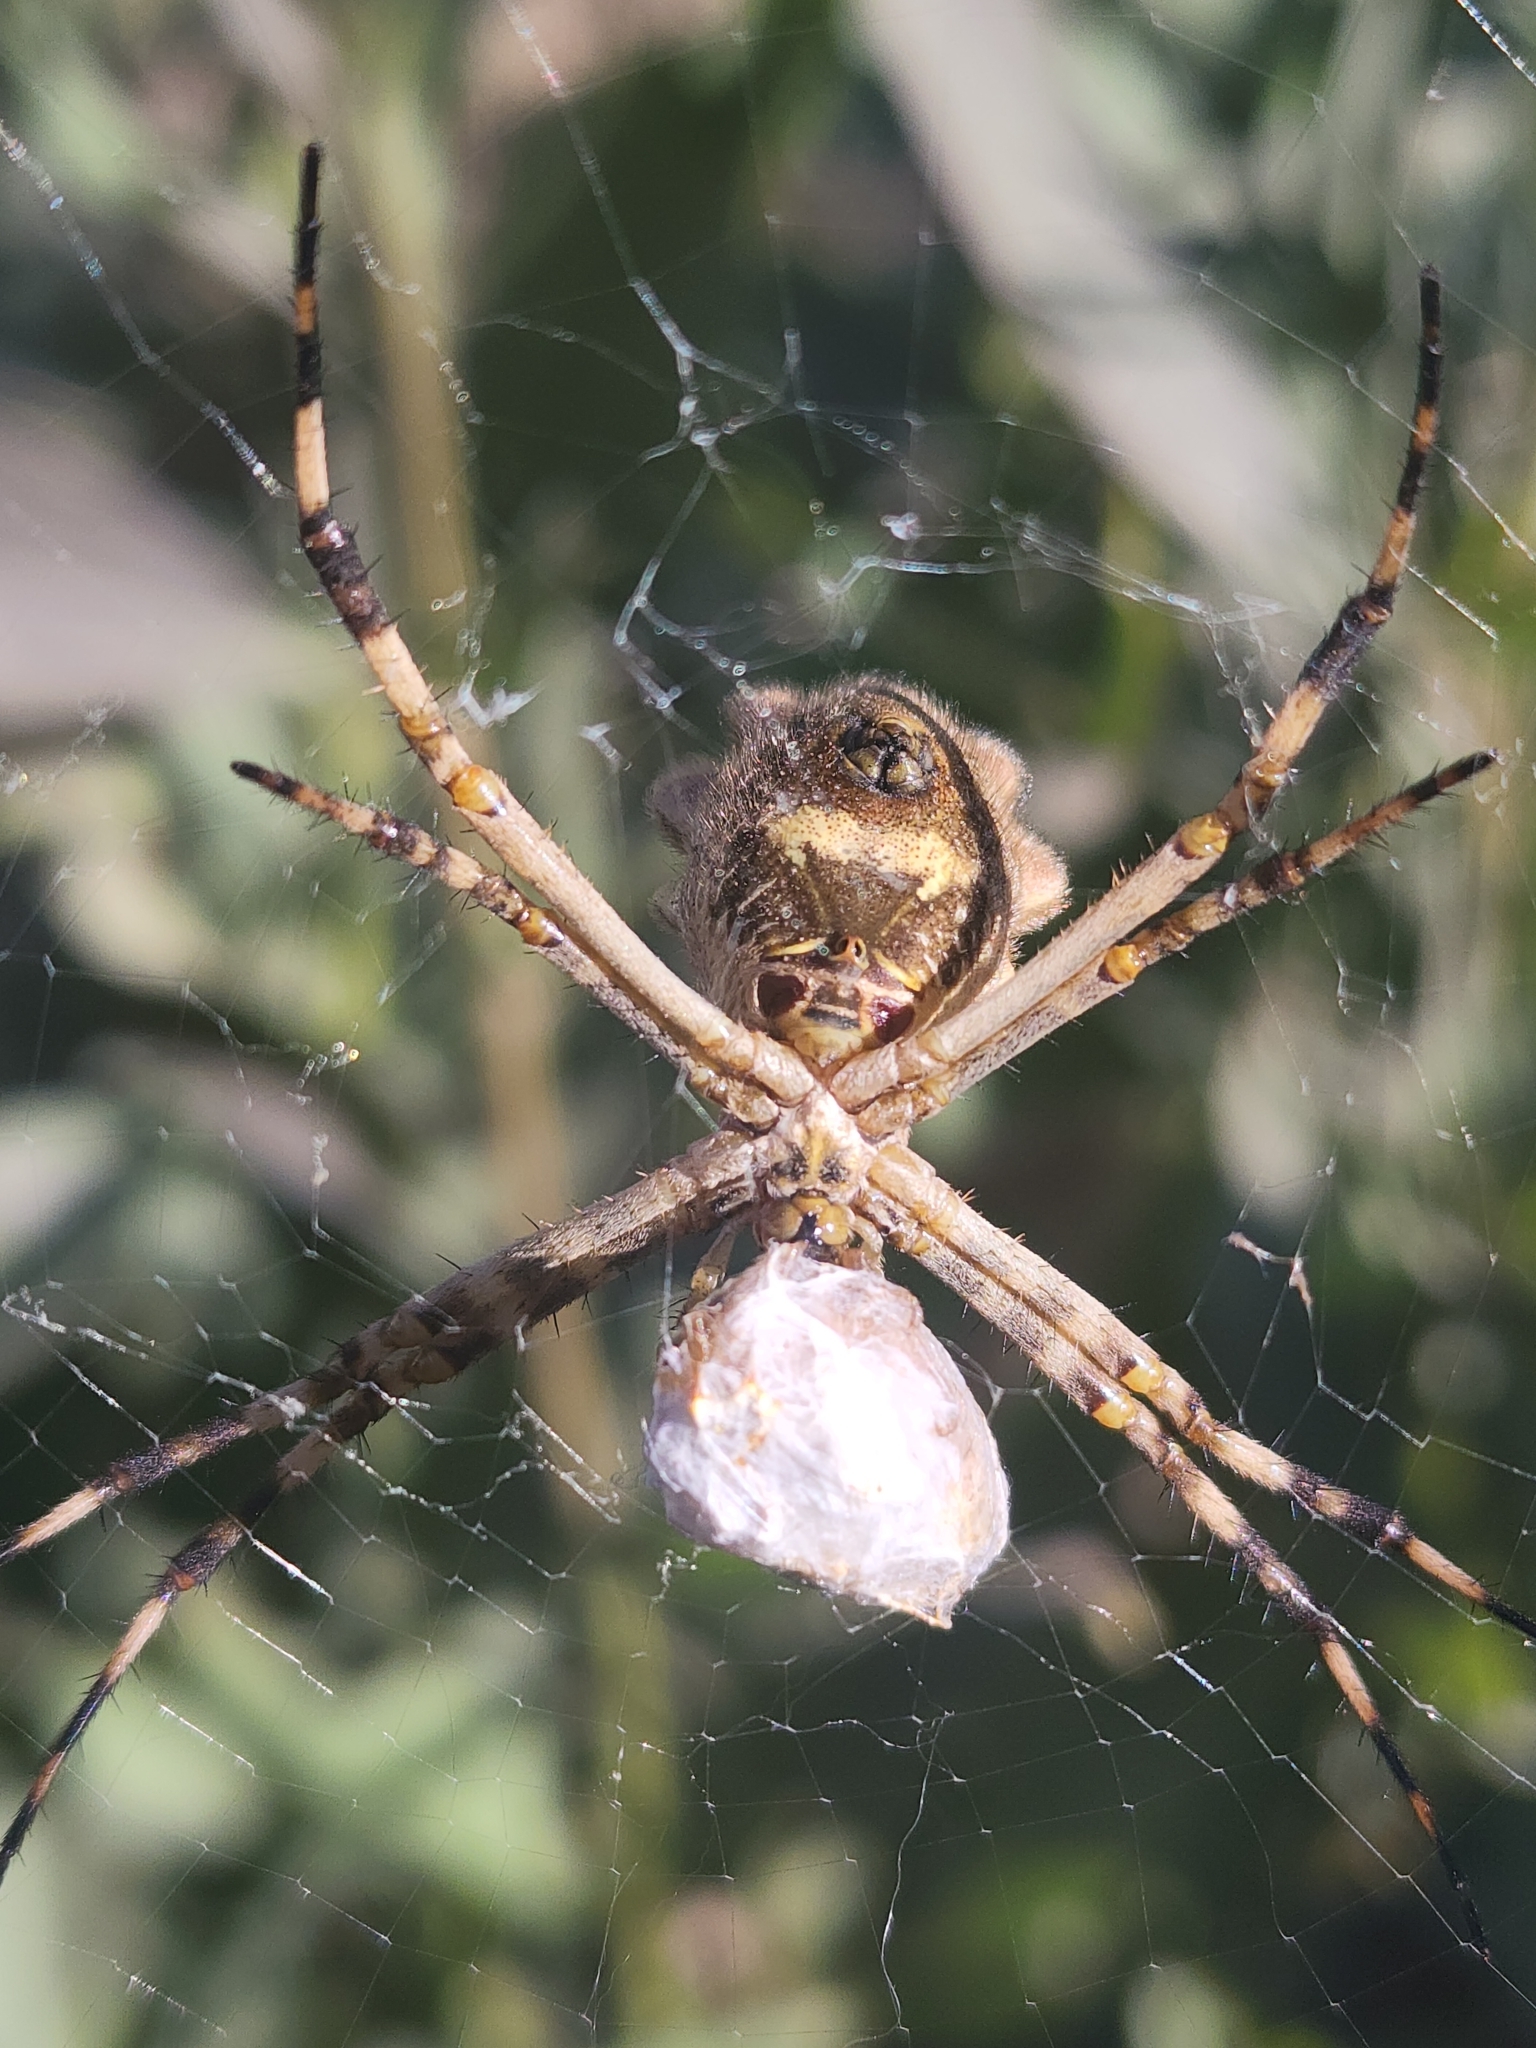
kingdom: Animalia
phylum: Arthropoda
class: Arachnida
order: Araneae
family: Araneidae
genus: Argiope
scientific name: Argiope argentata
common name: Orb weavers
